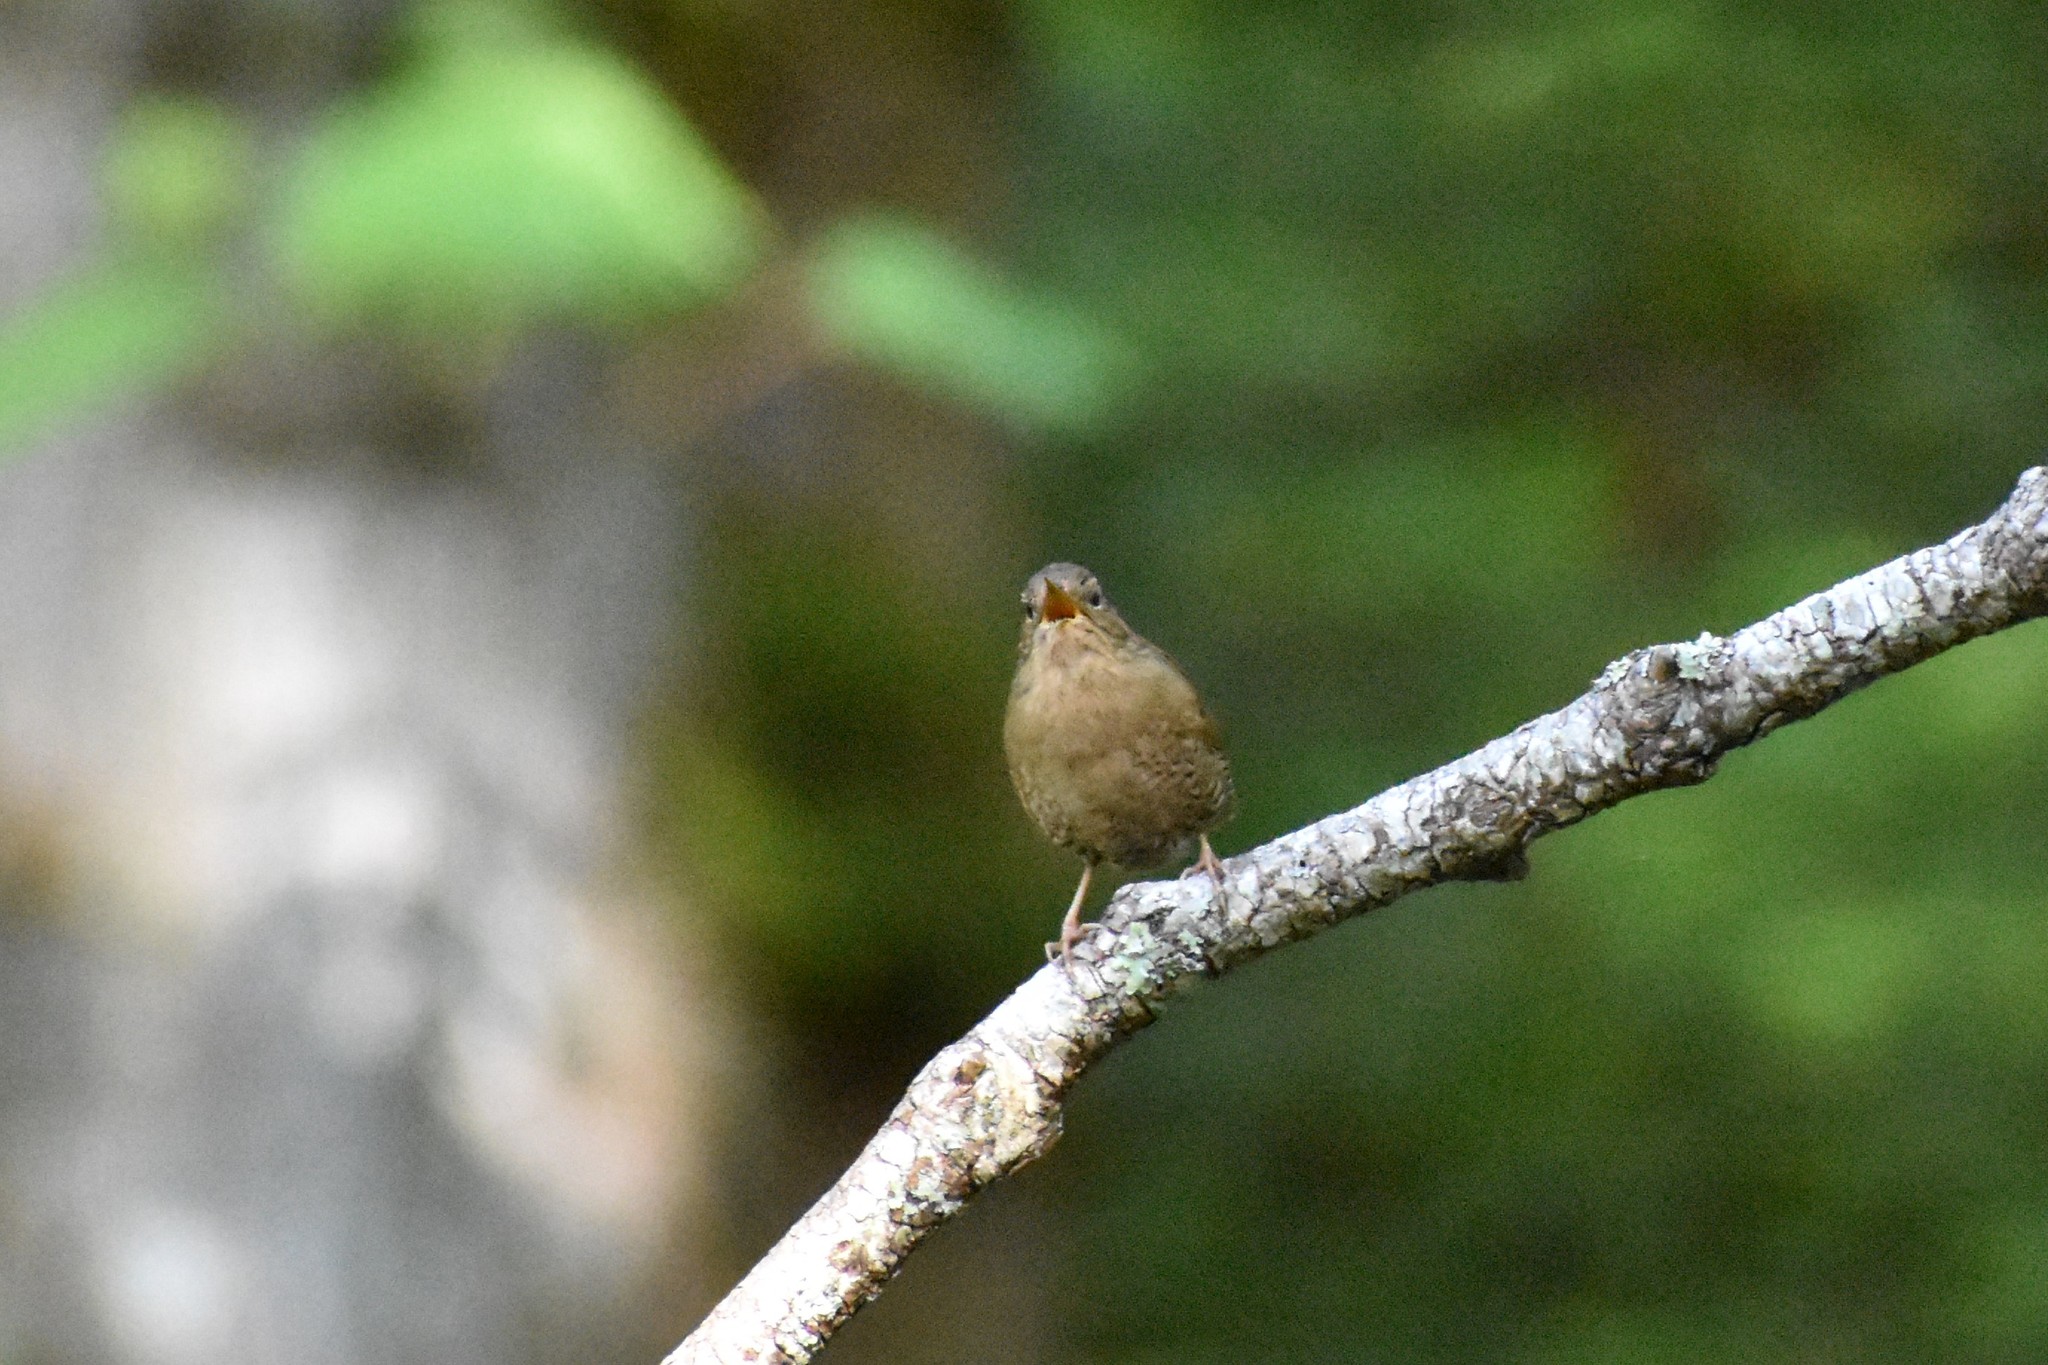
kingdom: Animalia
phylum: Chordata
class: Aves
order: Passeriformes
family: Troglodytidae
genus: Troglodytes
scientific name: Troglodytes pacificus
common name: Pacific wren
